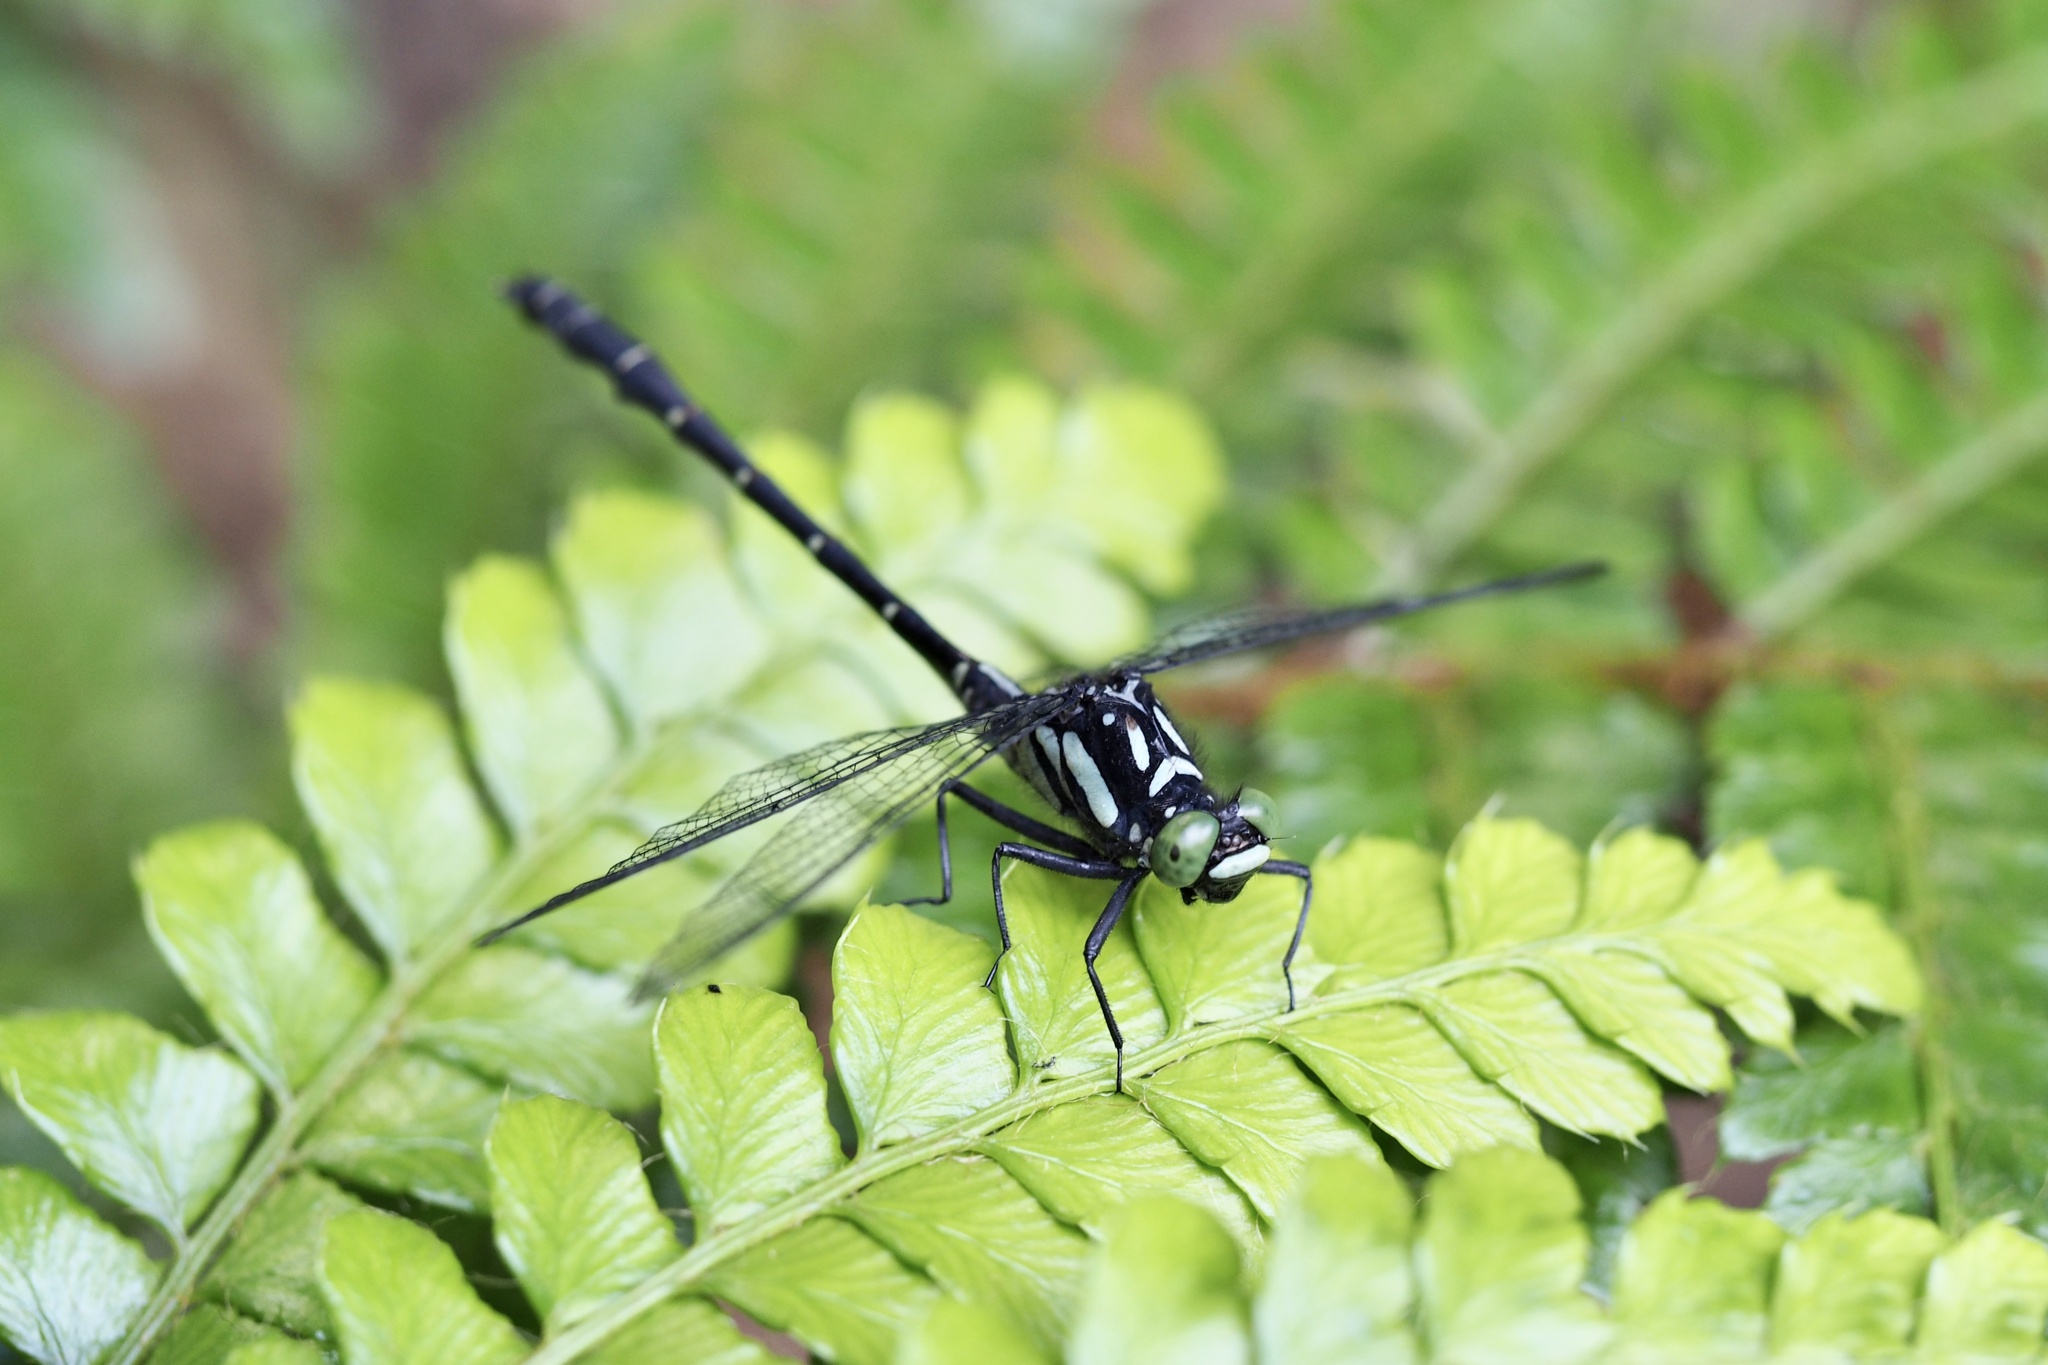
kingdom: Animalia
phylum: Arthropoda
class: Insecta
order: Odonata
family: Gomphidae
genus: Davidius
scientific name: Davidius nanus
